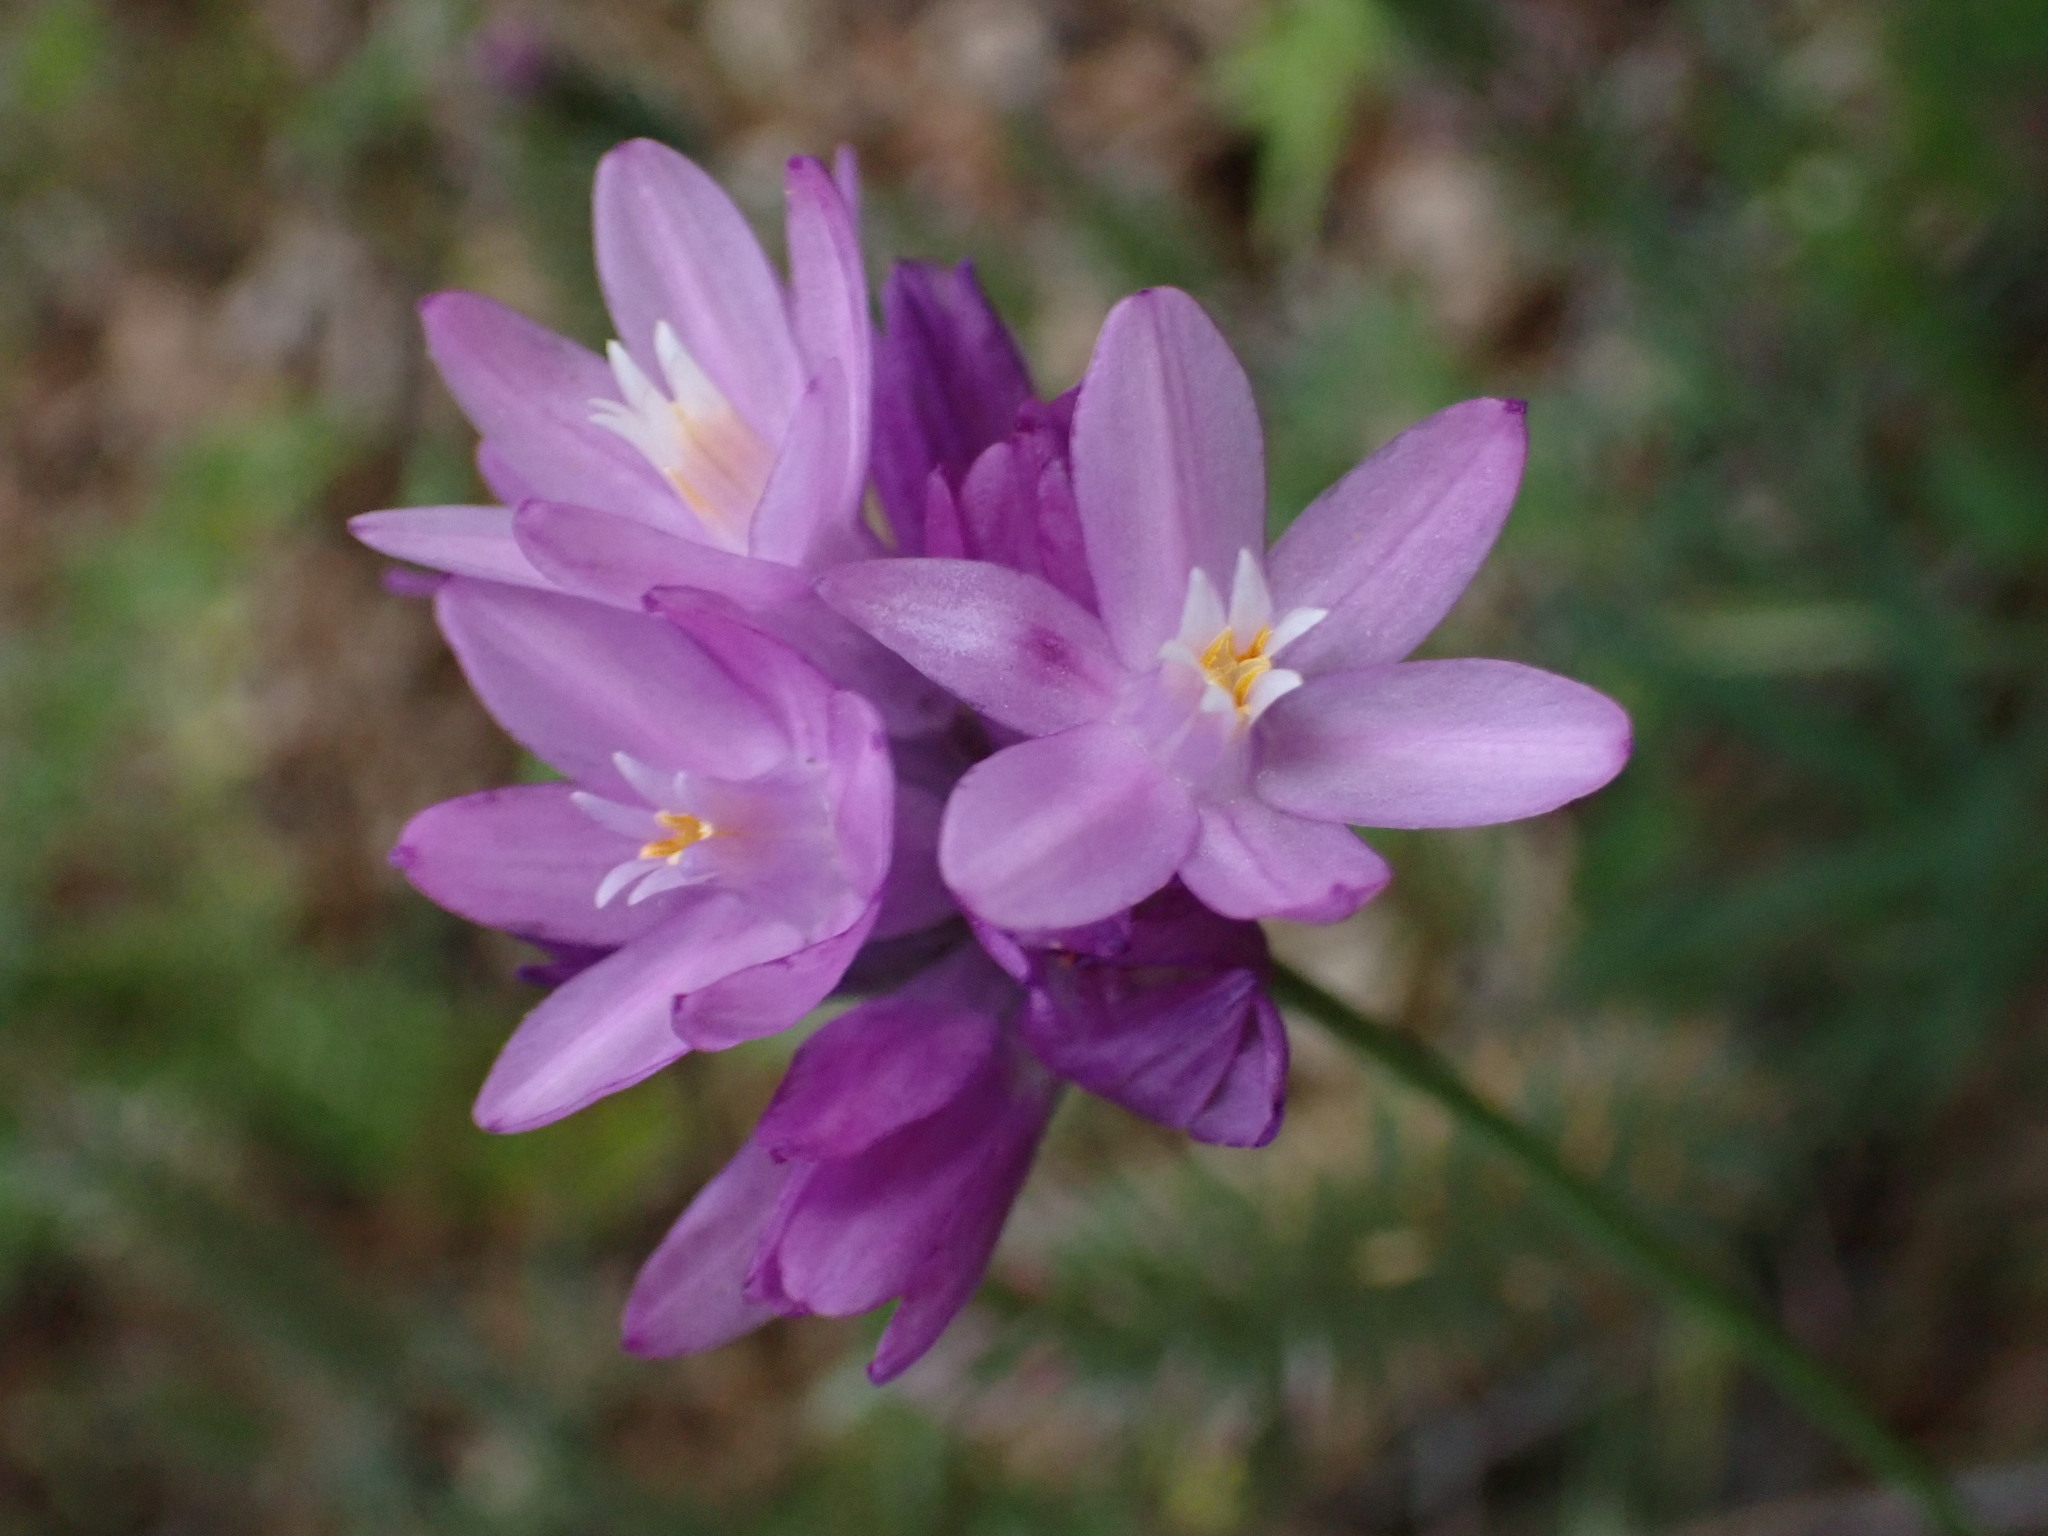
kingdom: Plantae
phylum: Tracheophyta
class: Liliopsida
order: Asparagales
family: Asparagaceae
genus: Dipterostemon
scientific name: Dipterostemon capitatus
